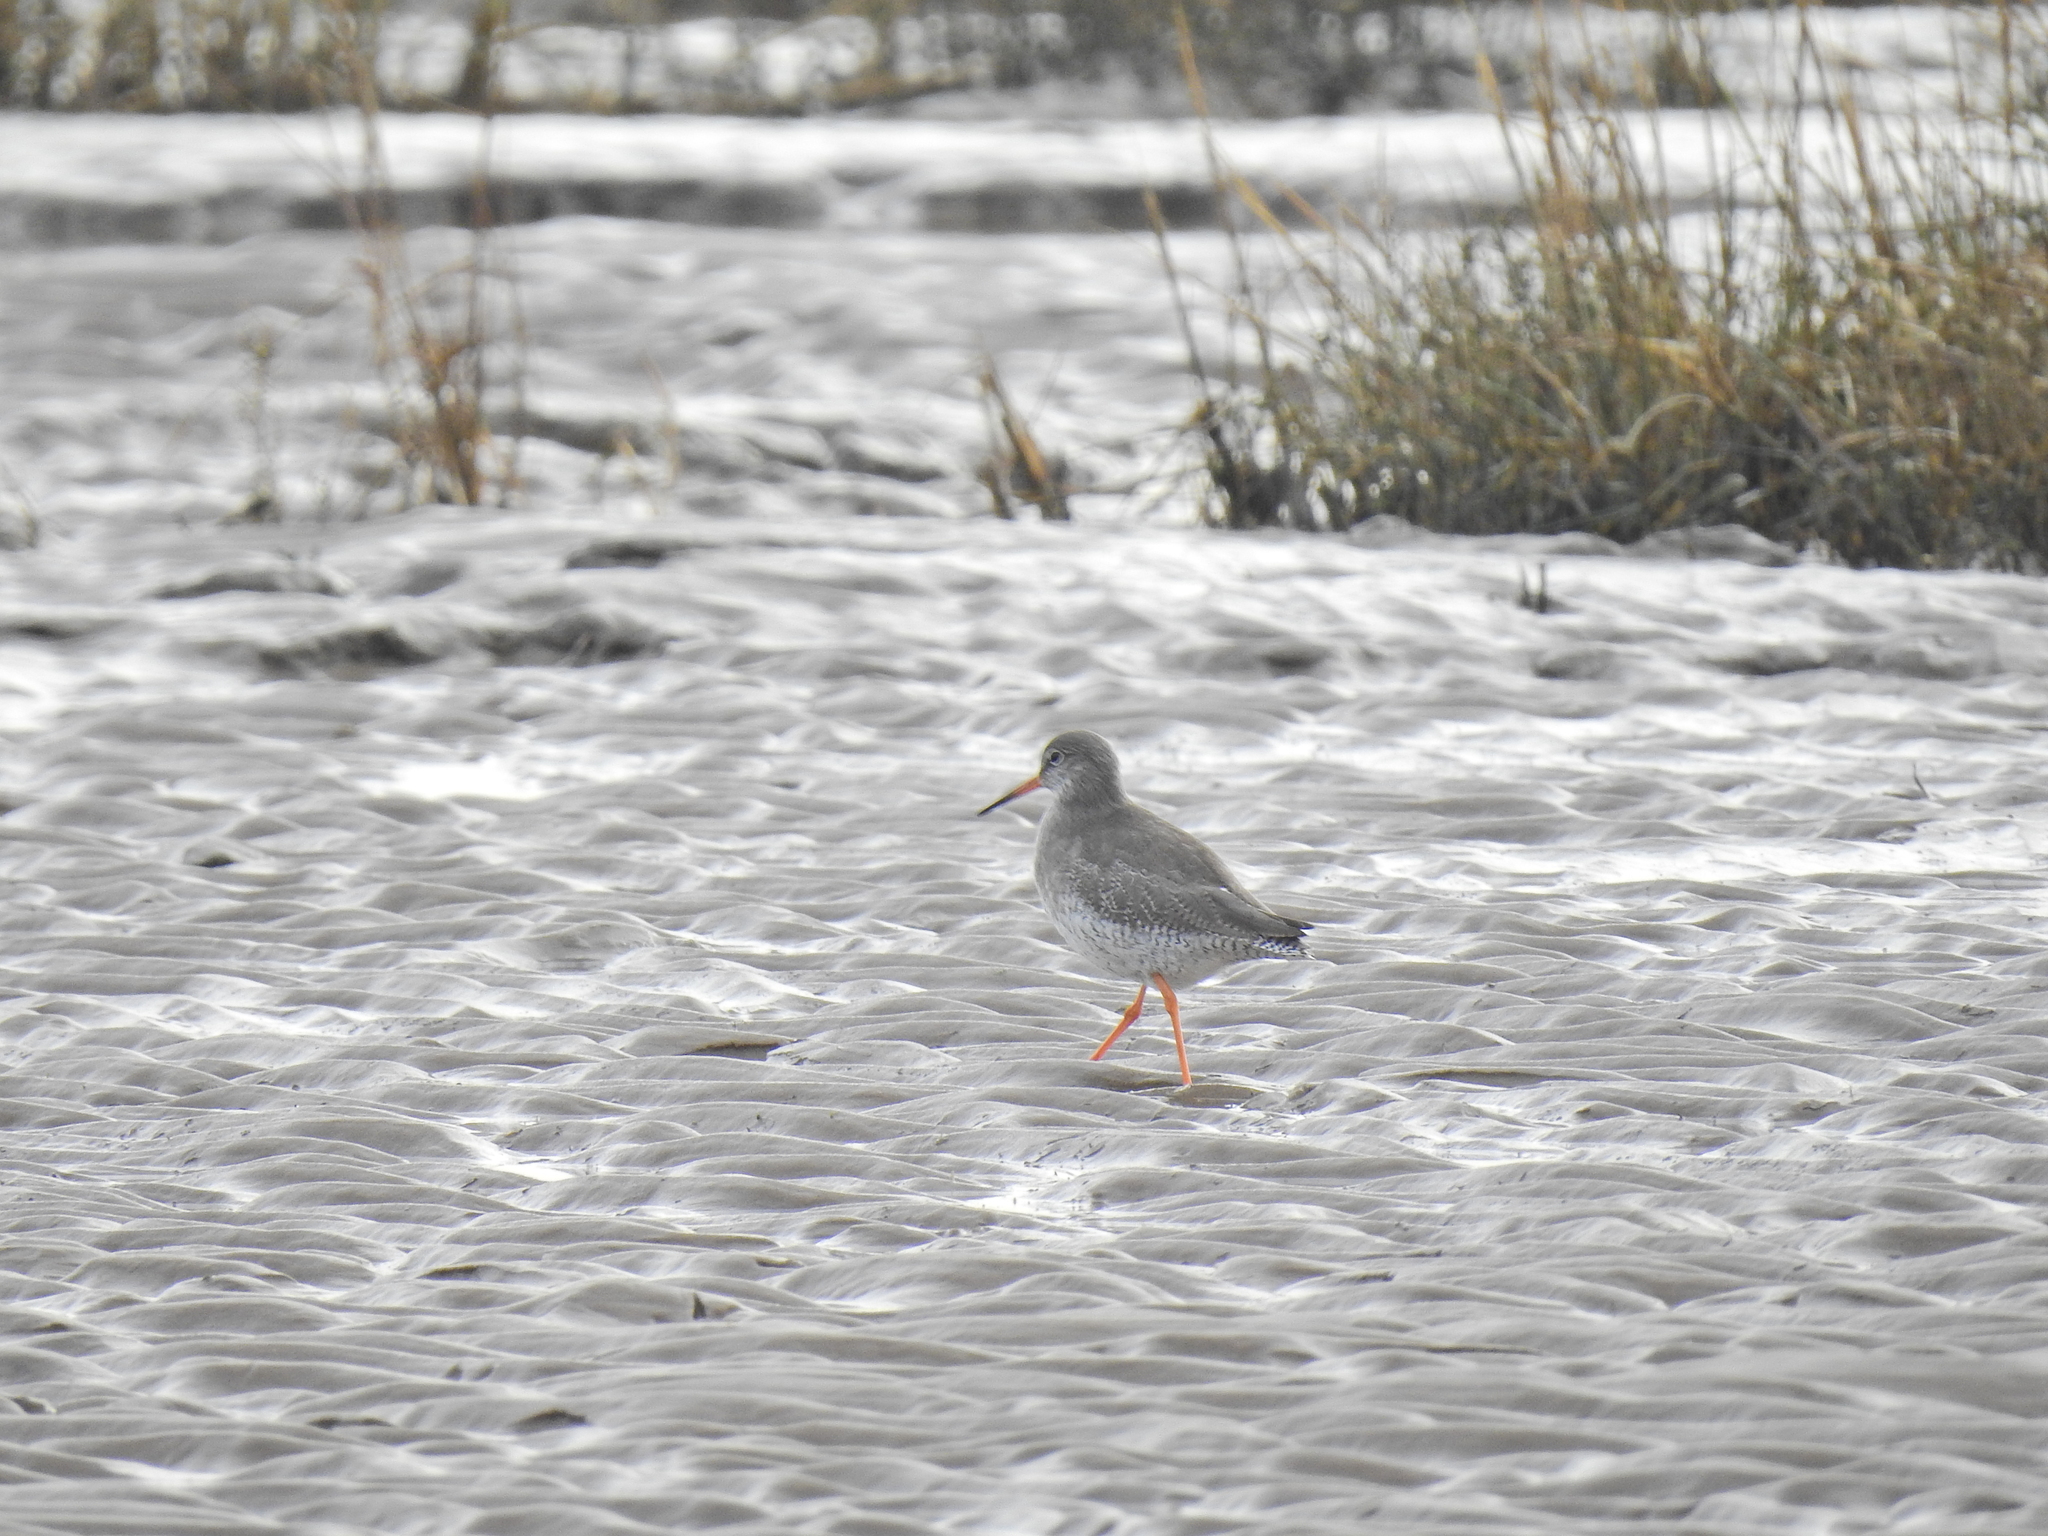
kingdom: Animalia
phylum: Chordata
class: Aves
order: Charadriiformes
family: Scolopacidae
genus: Tringa
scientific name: Tringa totanus
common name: Common redshank
